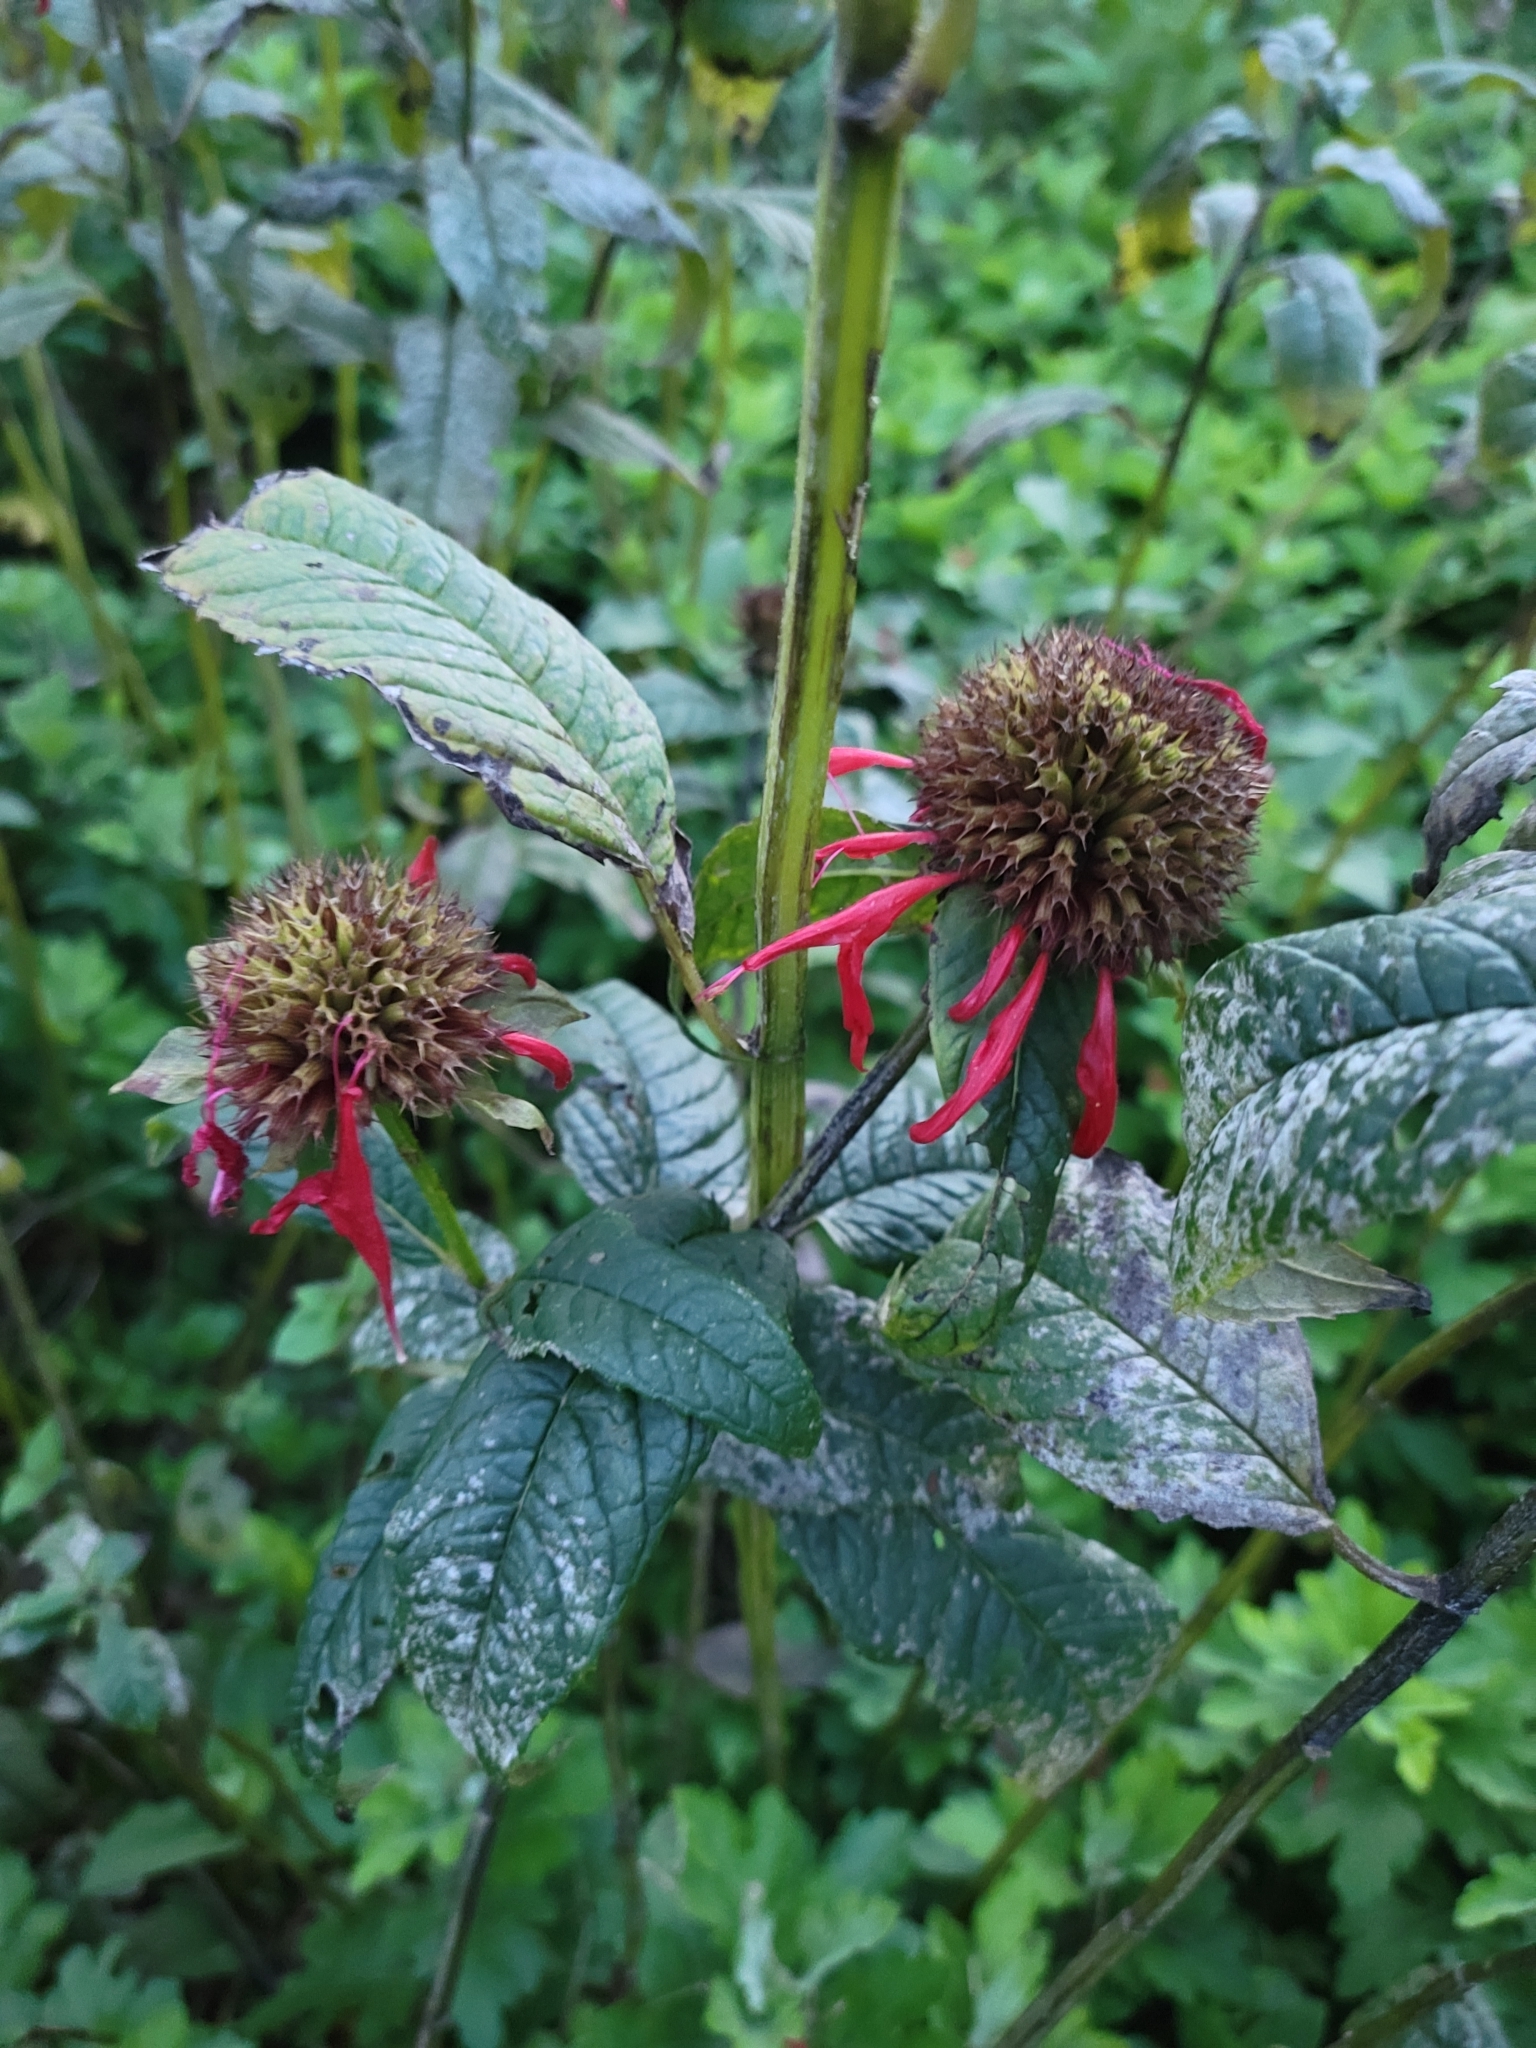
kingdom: Plantae
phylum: Tracheophyta
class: Magnoliopsida
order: Lamiales
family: Lamiaceae
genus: Monarda
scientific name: Monarda didyma
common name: Beebalm
